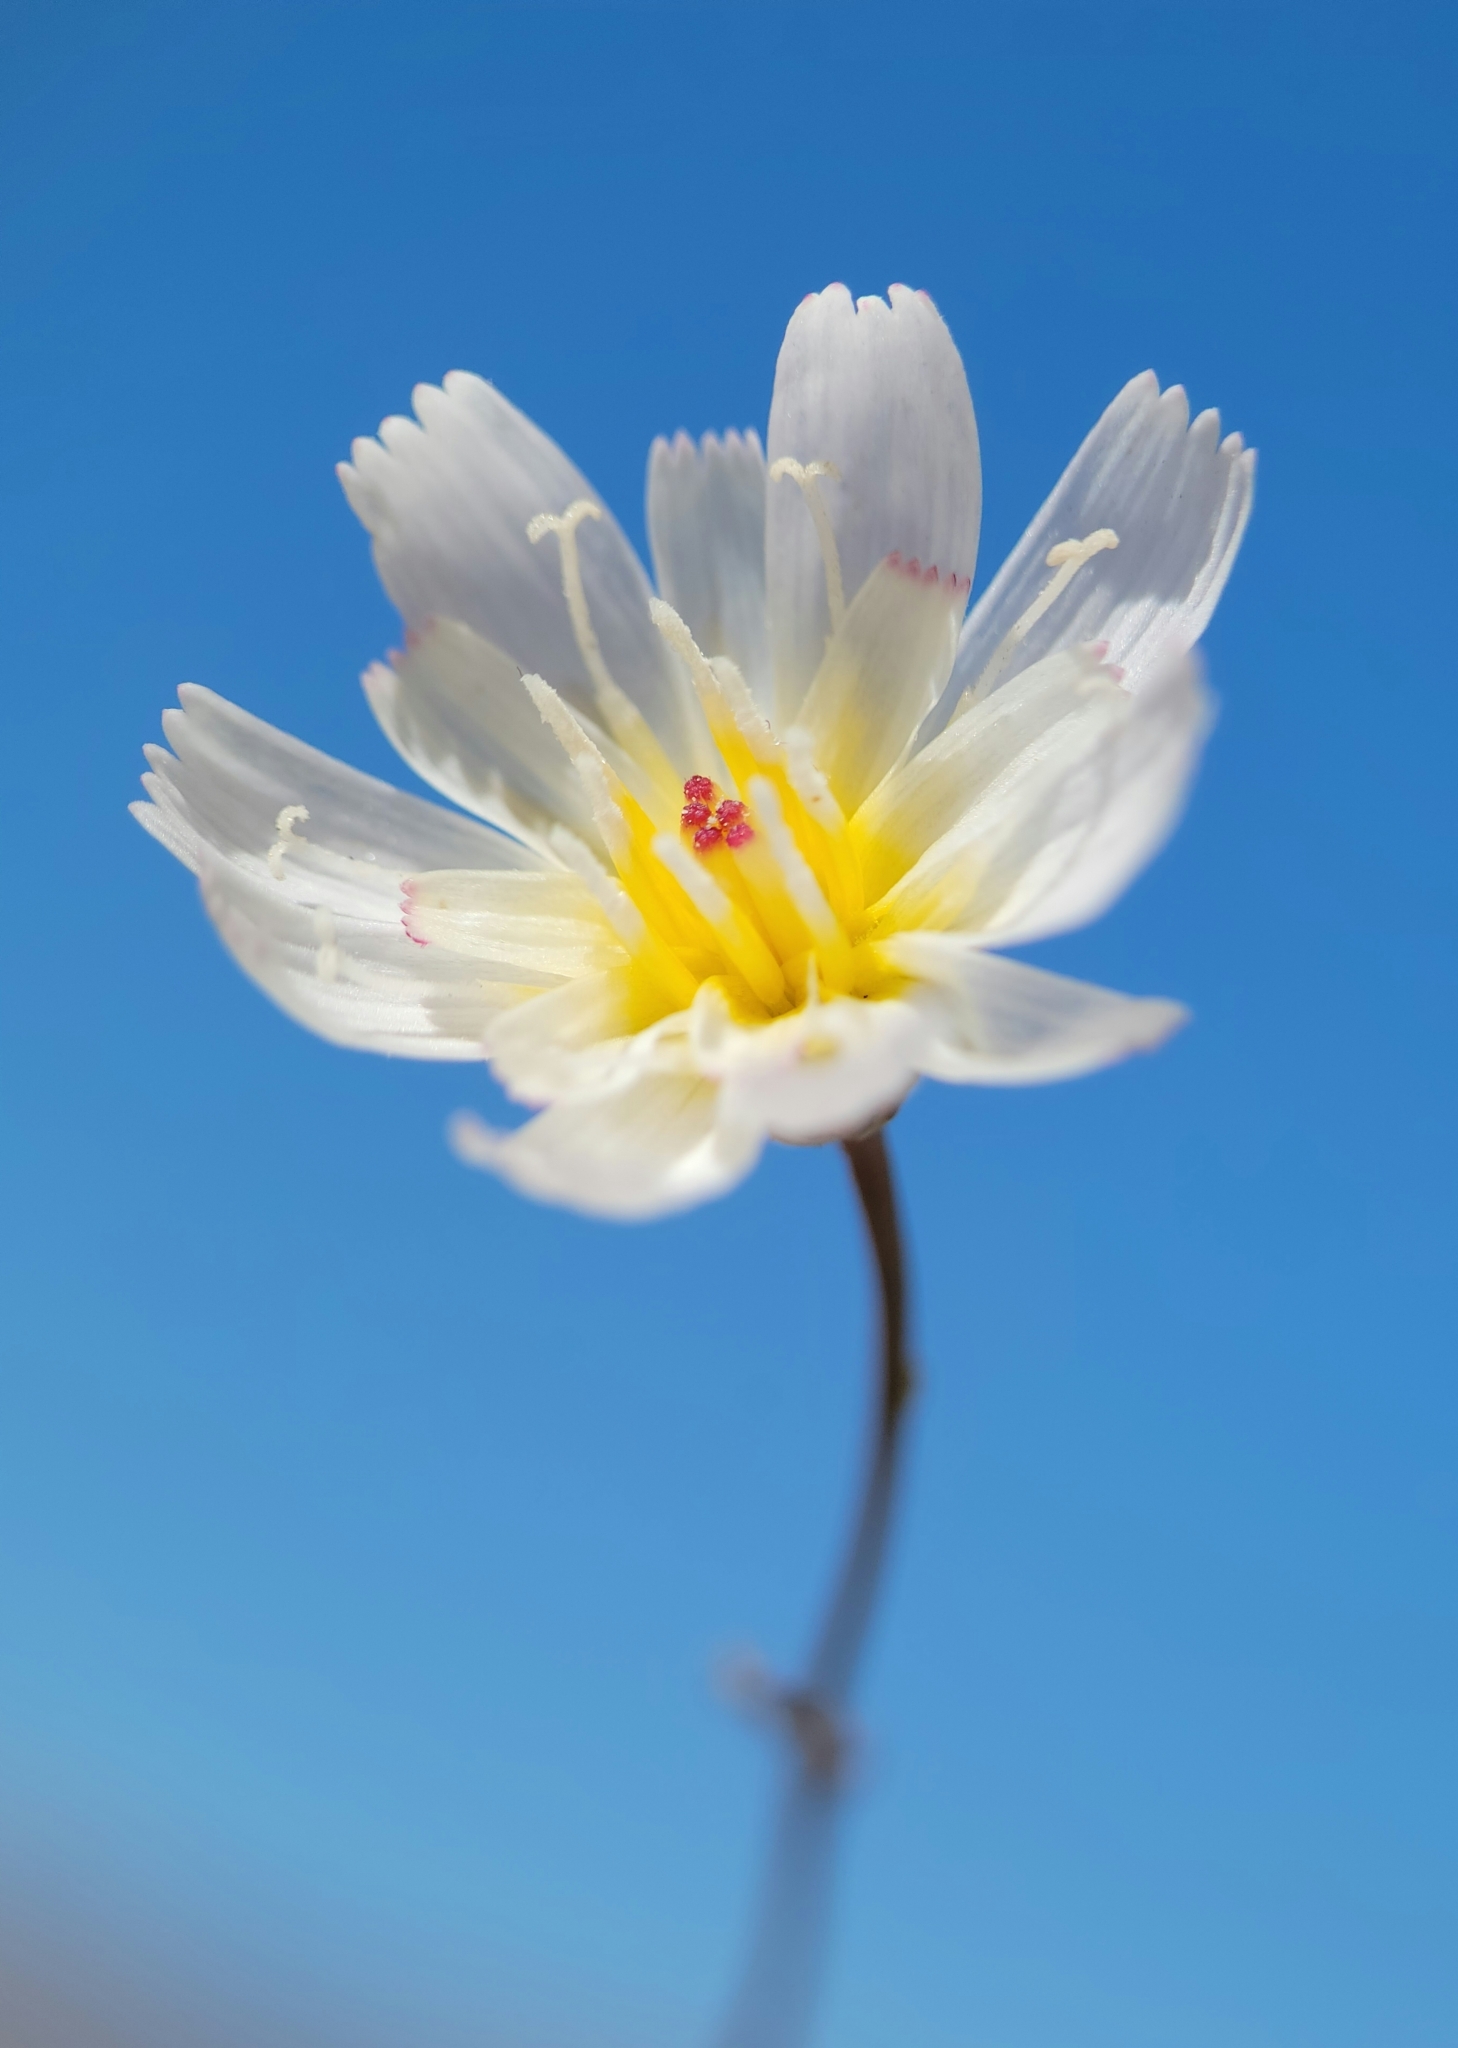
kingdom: Plantae
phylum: Tracheophyta
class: Magnoliopsida
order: Asterales
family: Asteraceae
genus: Atrichoseris
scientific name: Atrichoseris platyphylla
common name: Tobaccoweed
